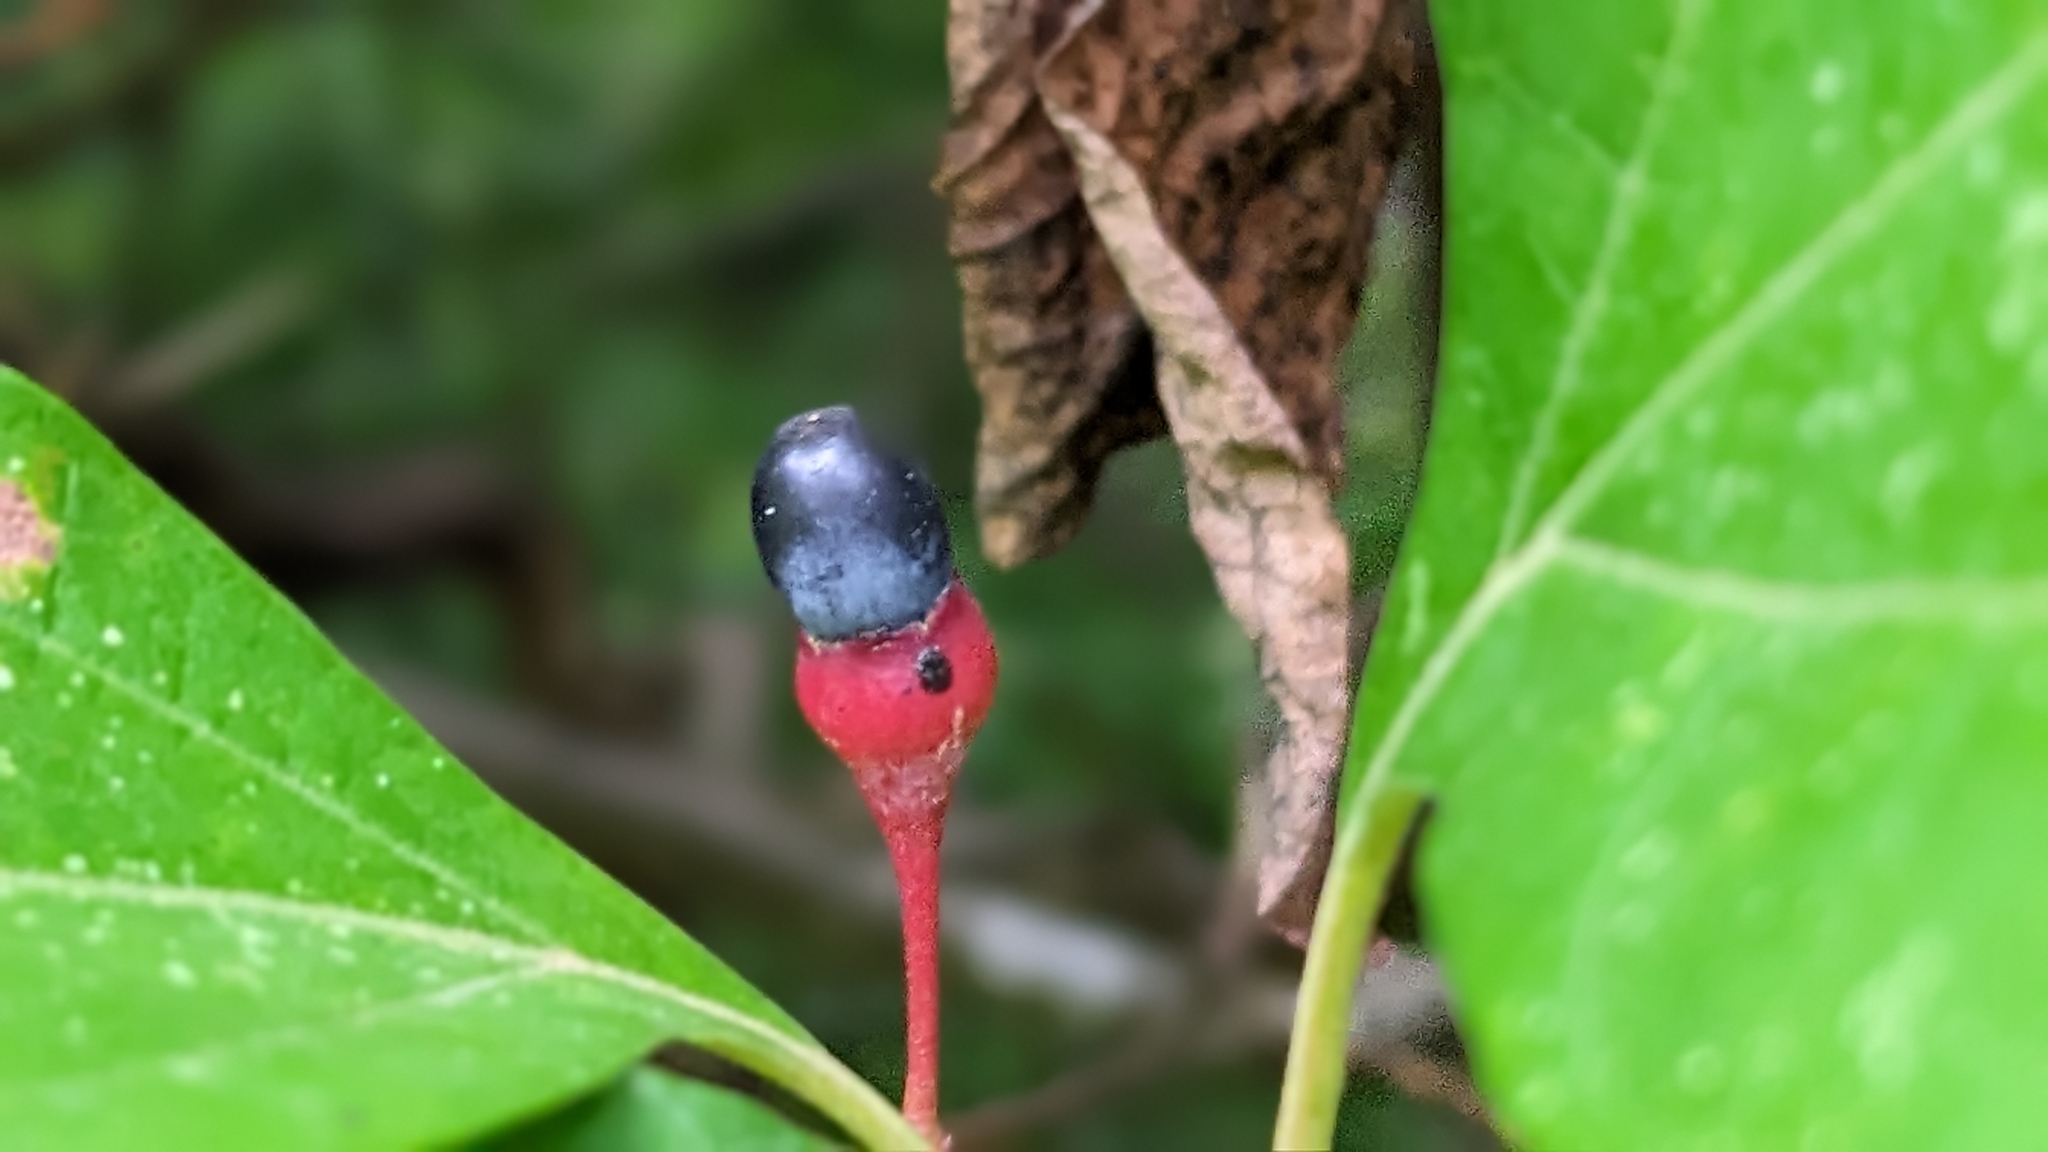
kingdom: Plantae
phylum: Tracheophyta
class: Magnoliopsida
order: Laurales
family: Lauraceae
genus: Sassafras
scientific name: Sassafras albidum
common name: Sassafras
